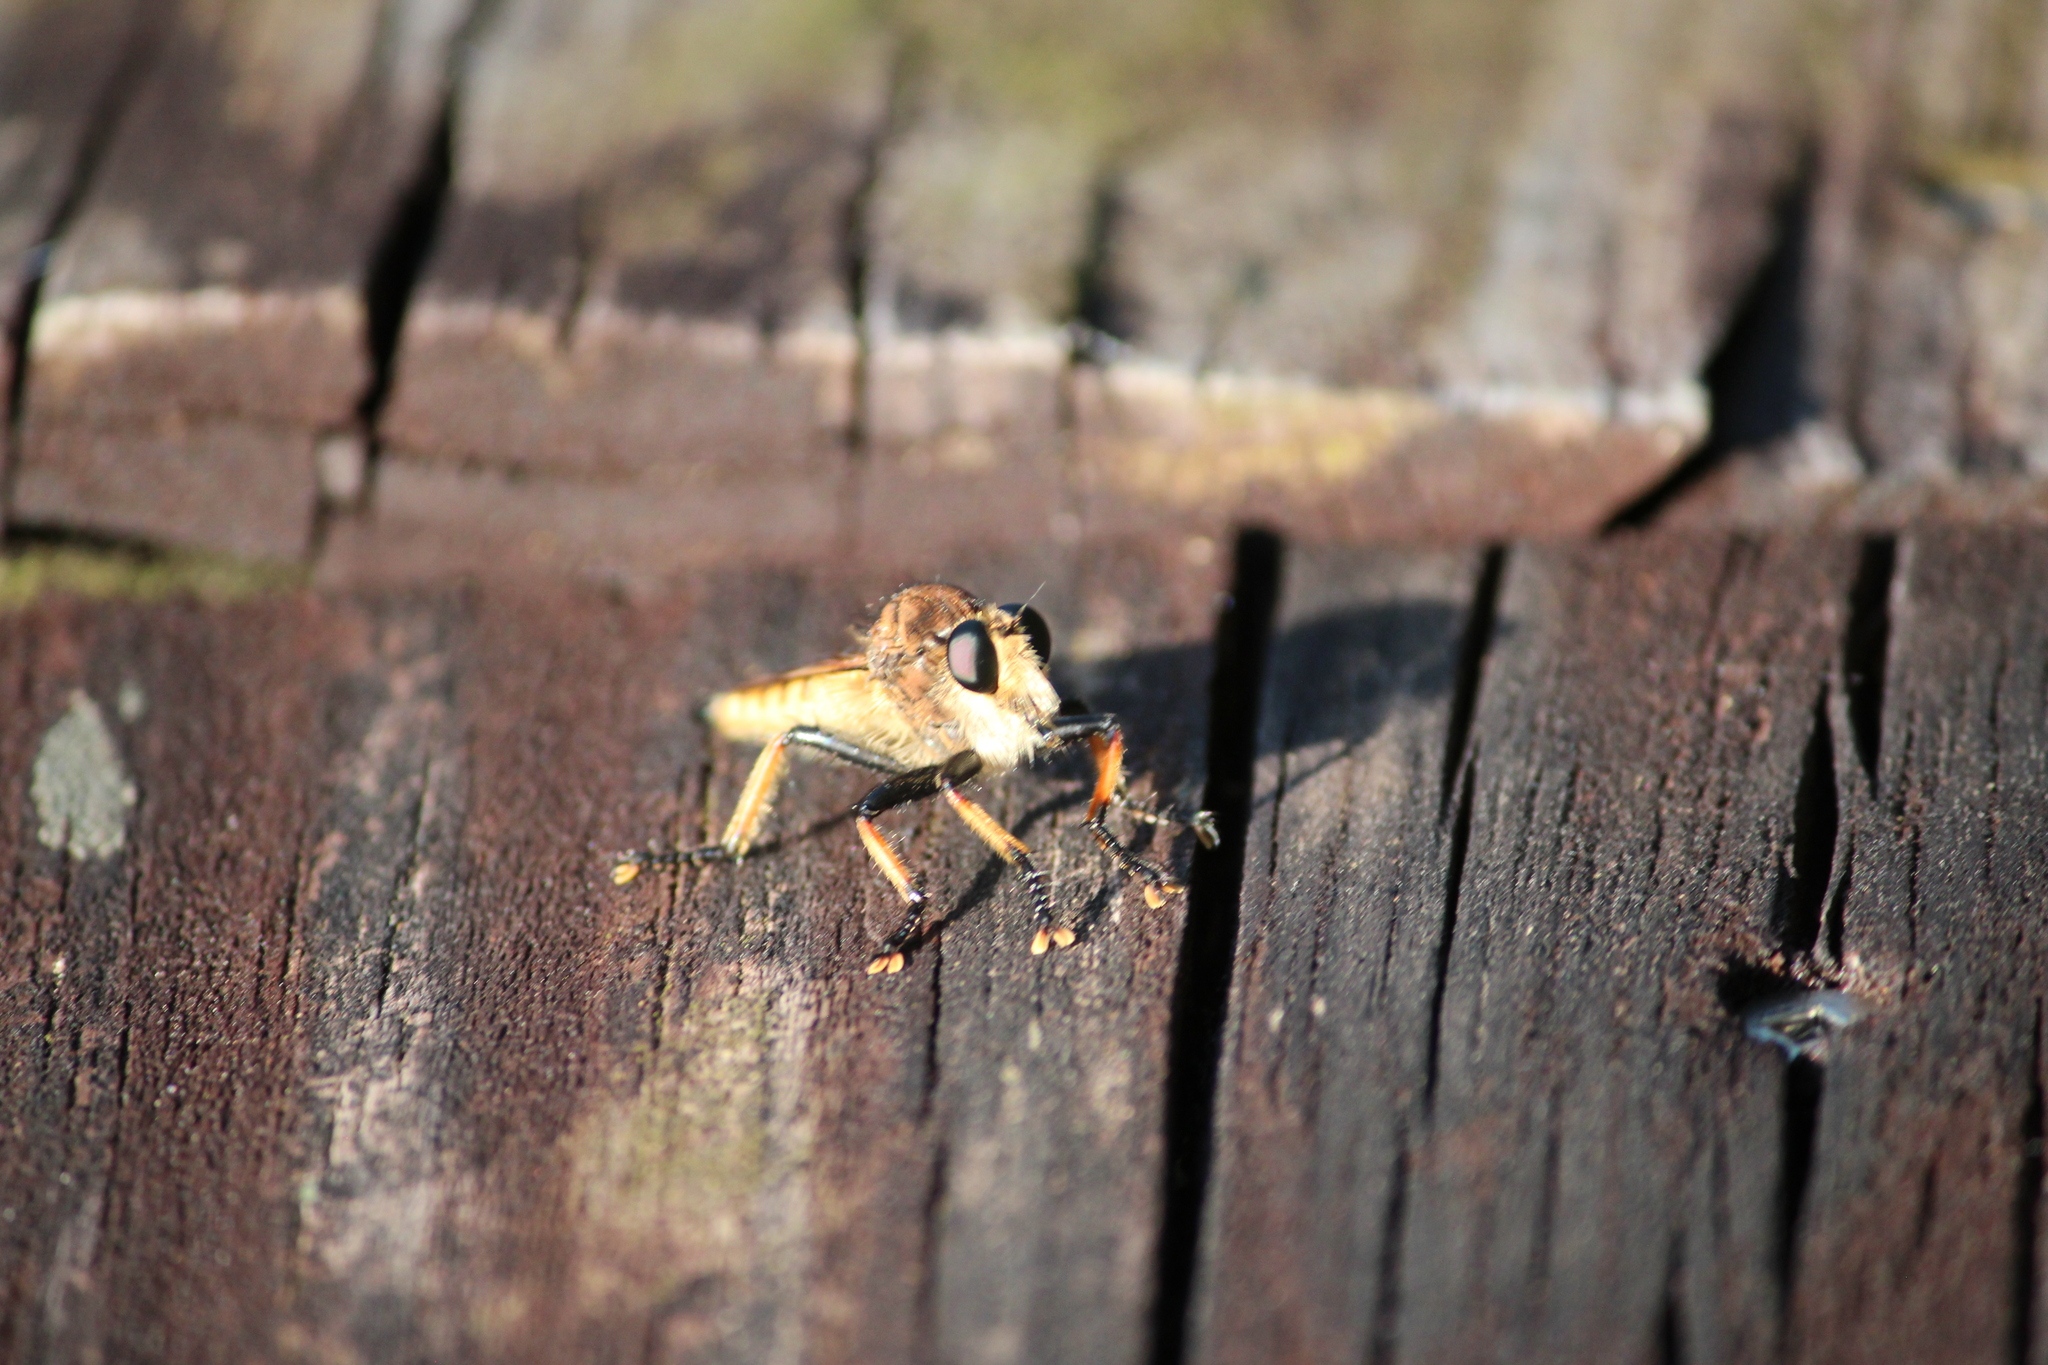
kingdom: Animalia
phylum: Arthropoda
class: Insecta
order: Diptera
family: Asilidae
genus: Promachus
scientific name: Promachus rufipes
